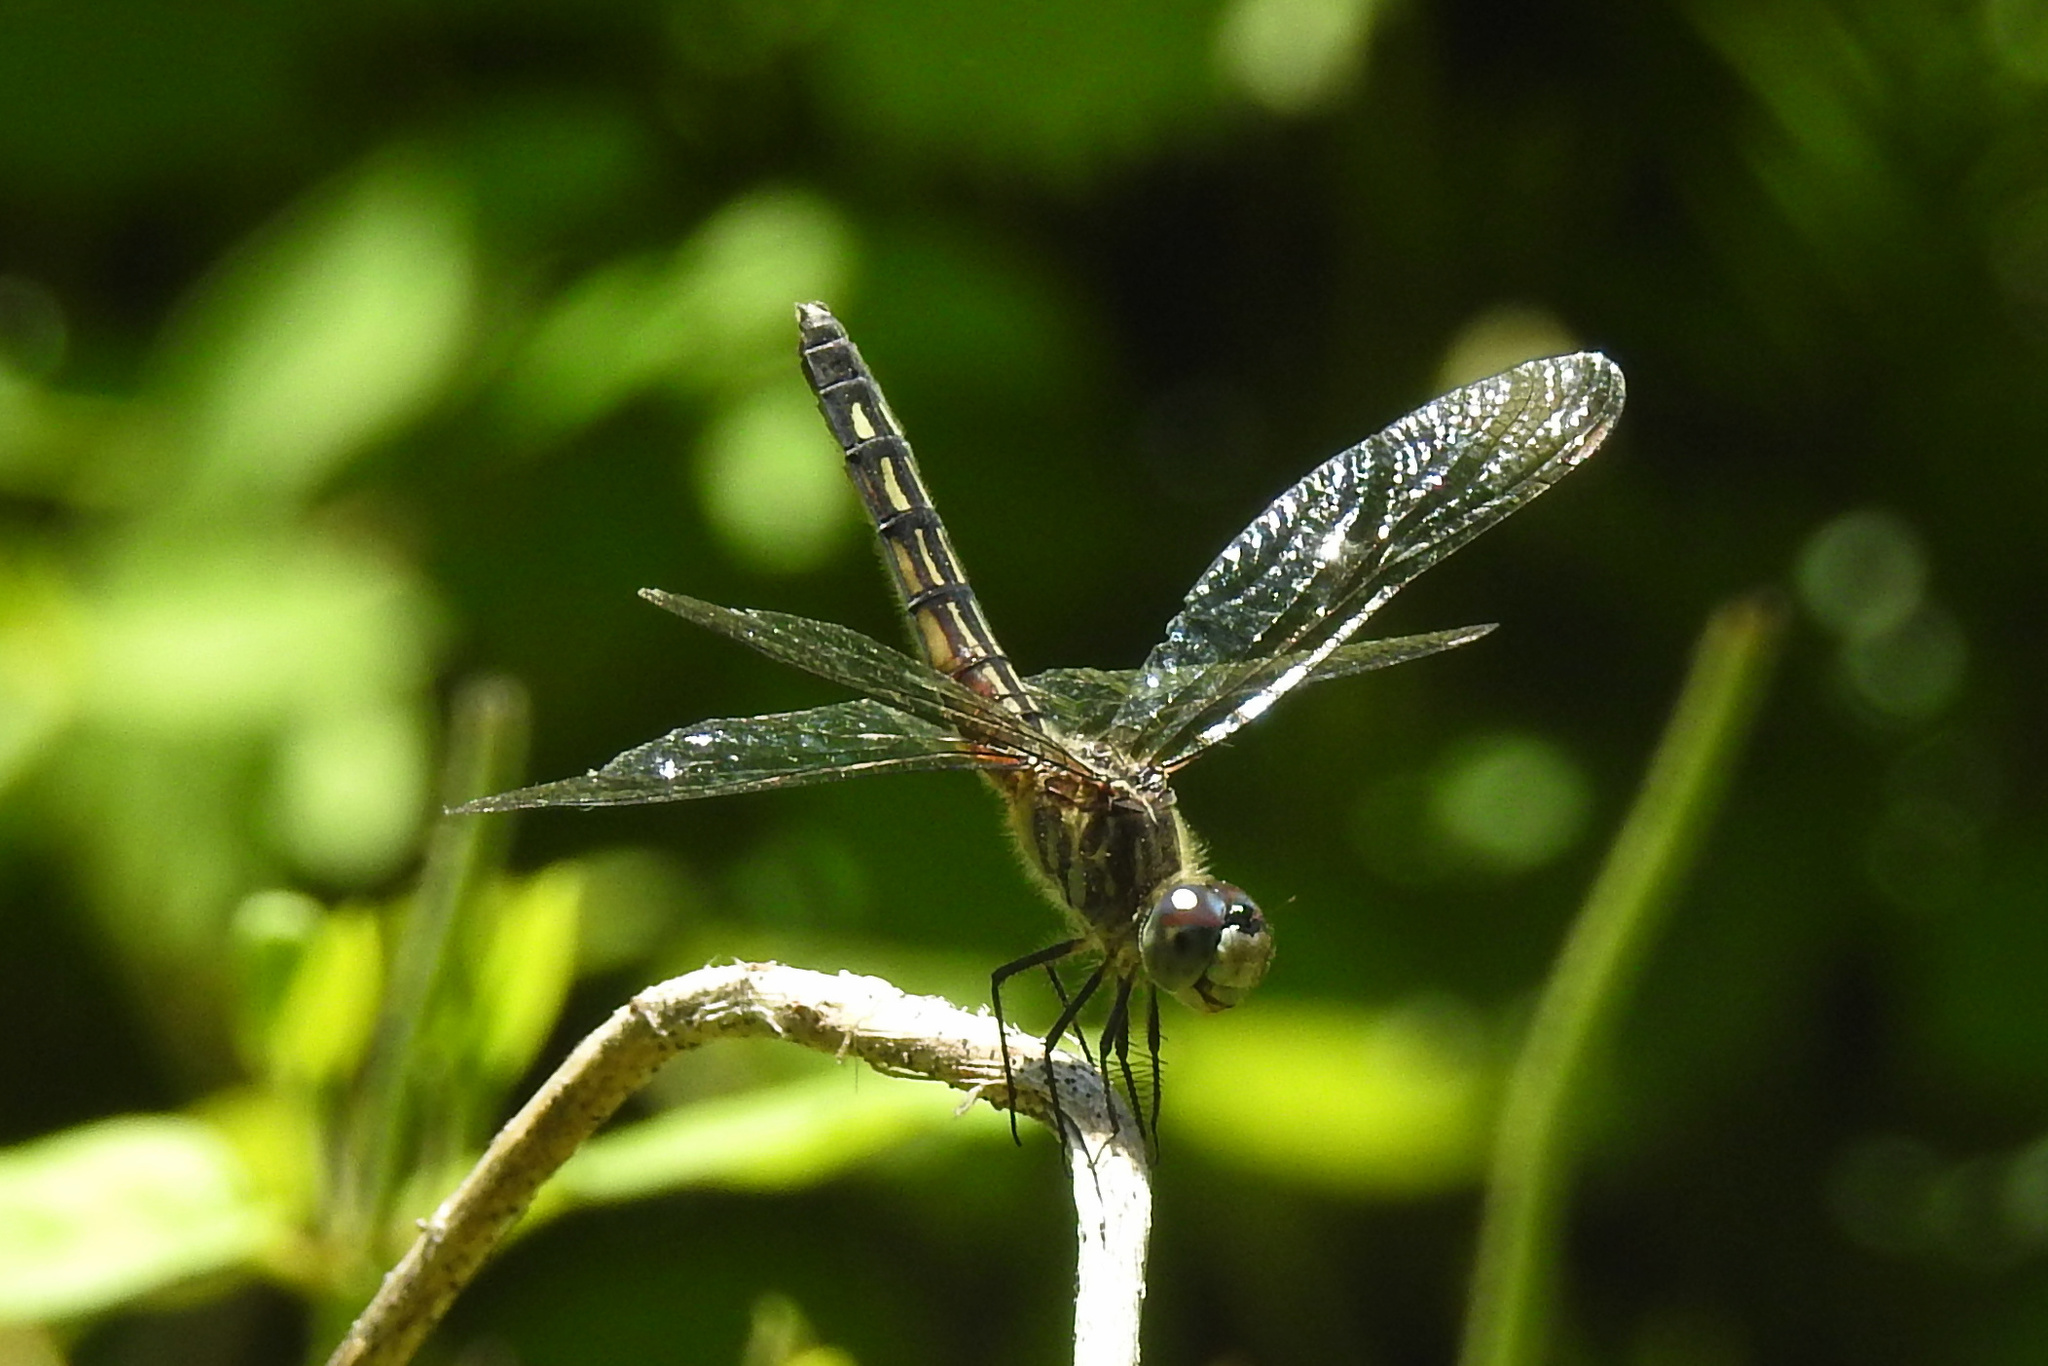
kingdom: Animalia
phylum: Arthropoda
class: Insecta
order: Odonata
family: Libellulidae
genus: Pachydiplax
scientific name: Pachydiplax longipennis
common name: Blue dasher
